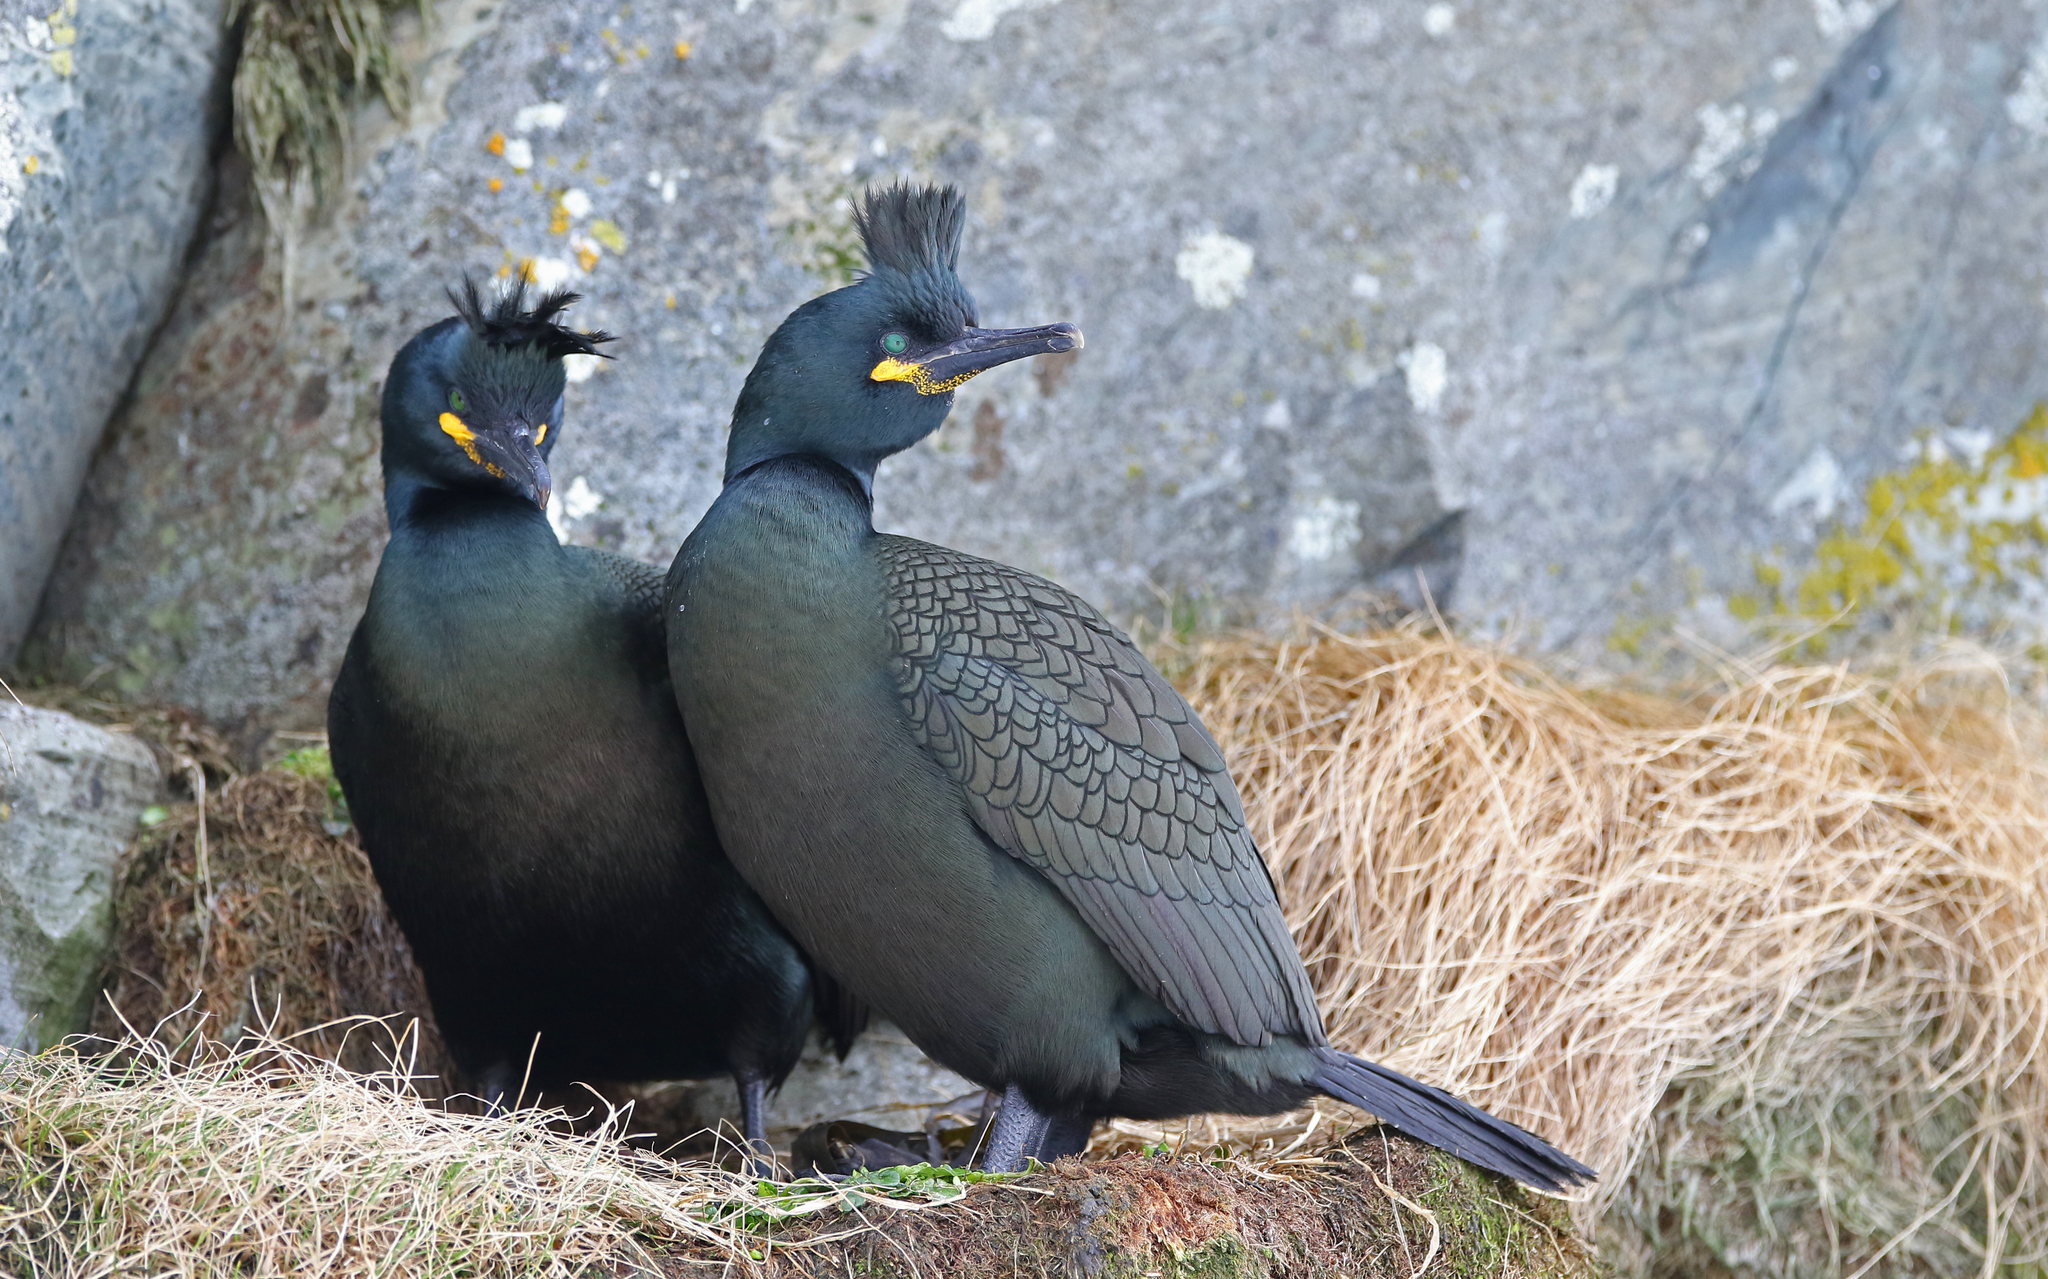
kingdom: Animalia
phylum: Chordata
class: Aves
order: Suliformes
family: Phalacrocoracidae
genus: Phalacrocorax
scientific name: Phalacrocorax aristotelis
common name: European shag
